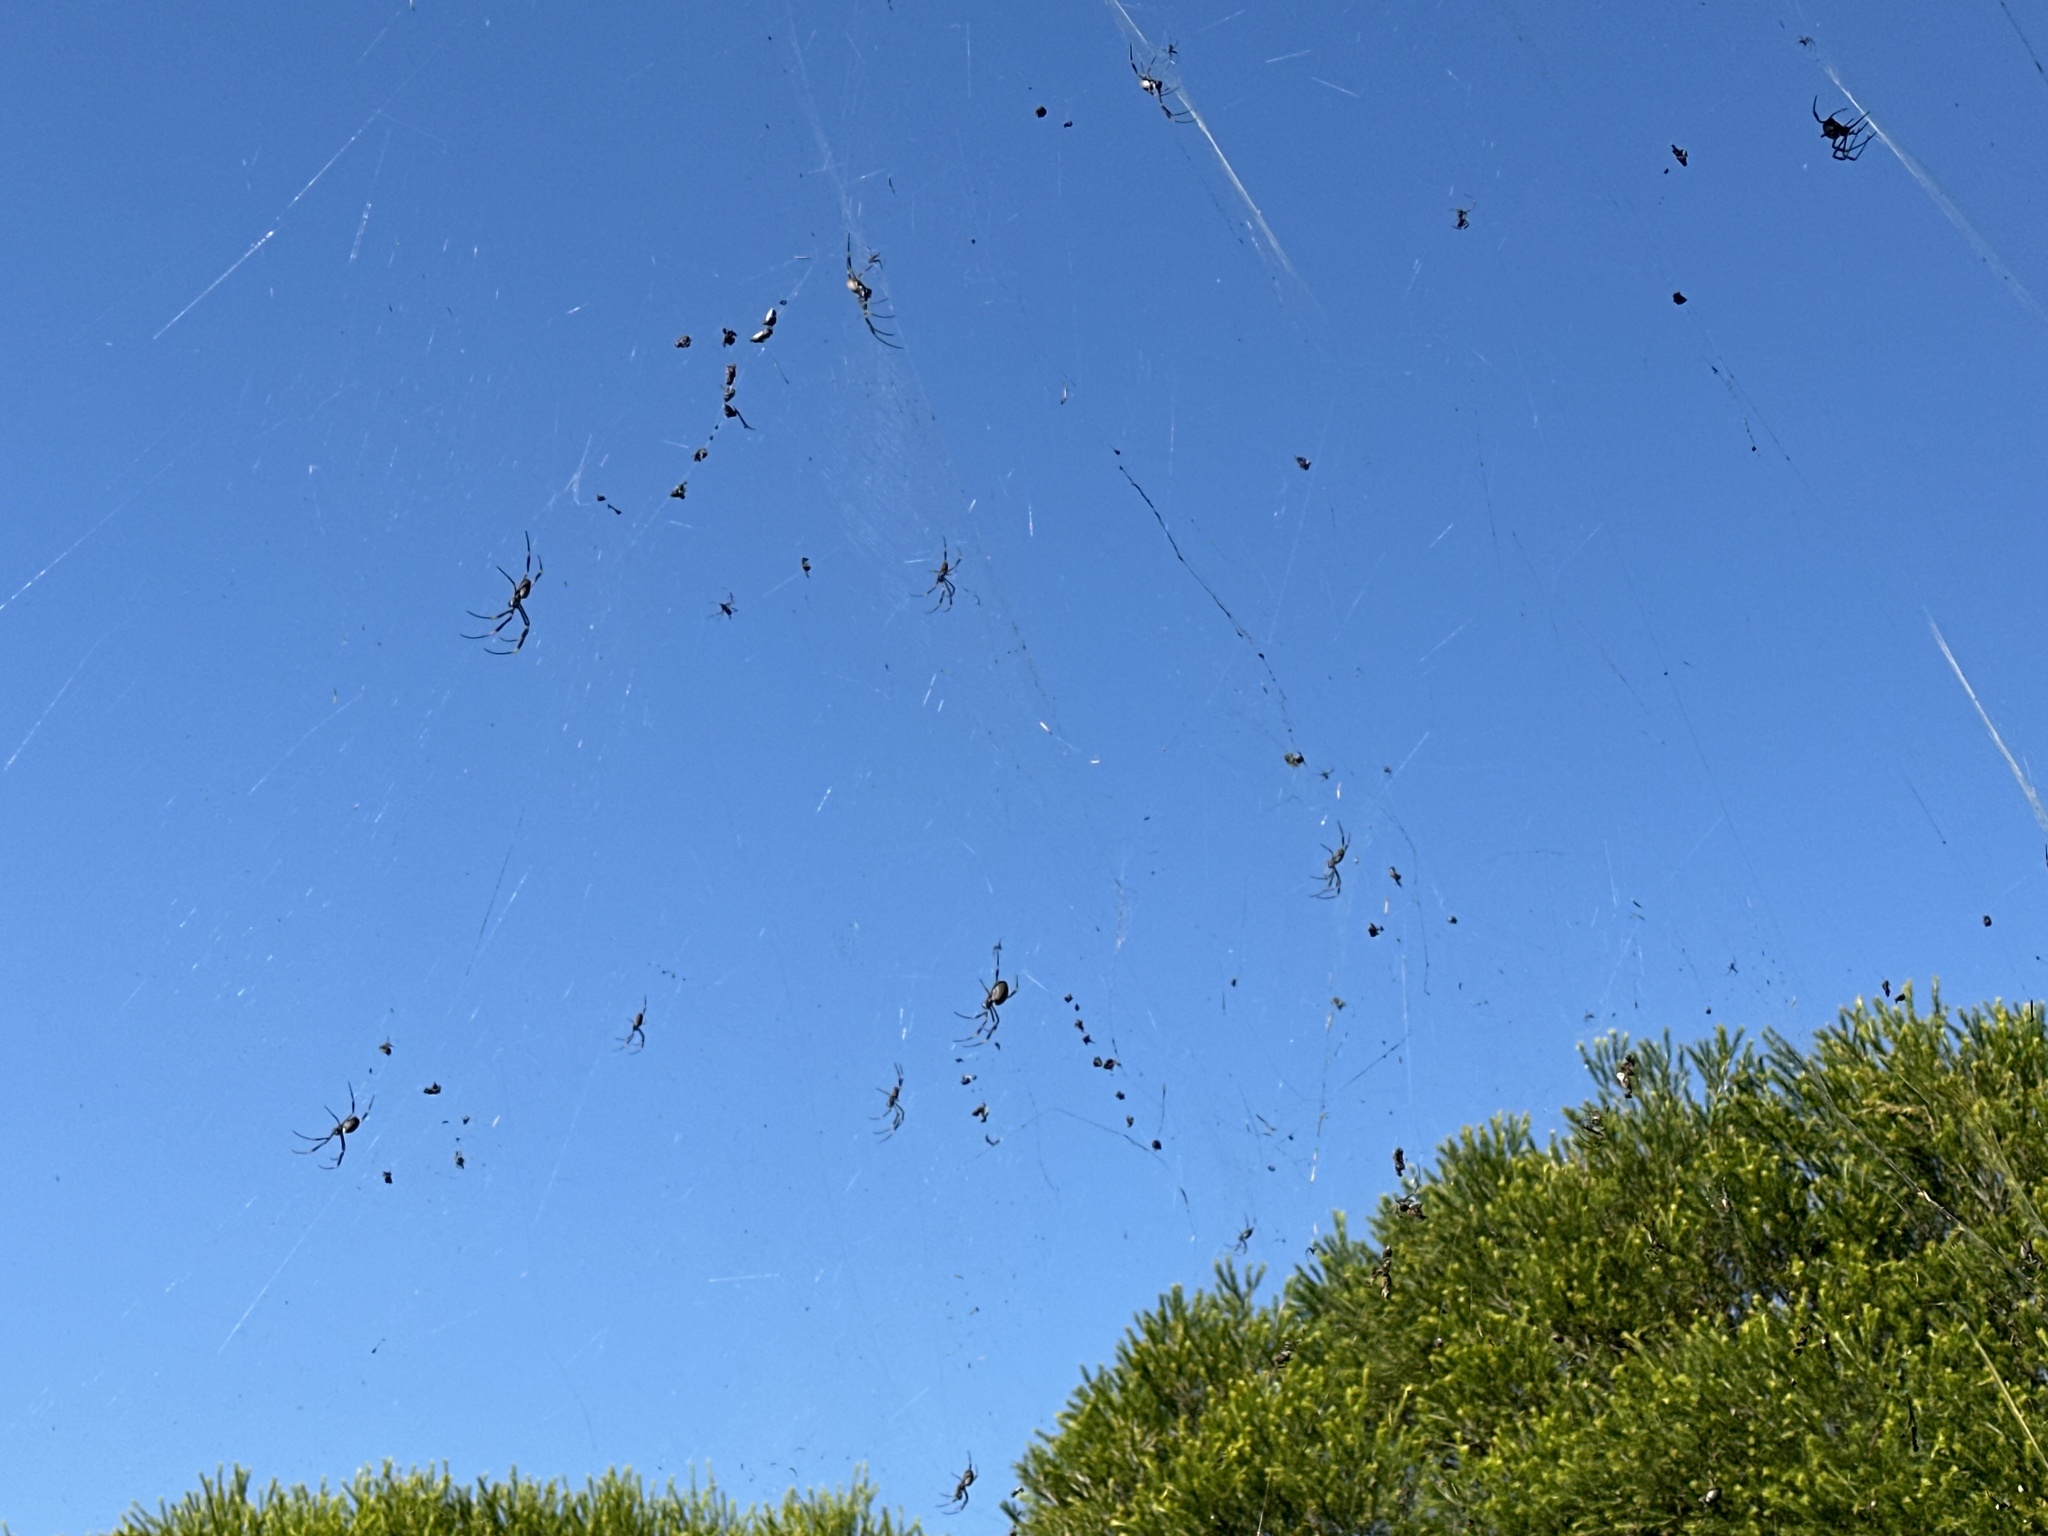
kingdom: Animalia
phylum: Arthropoda
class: Arachnida
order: Araneae
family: Araneidae
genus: Trichonephila
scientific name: Trichonephila plumipes
